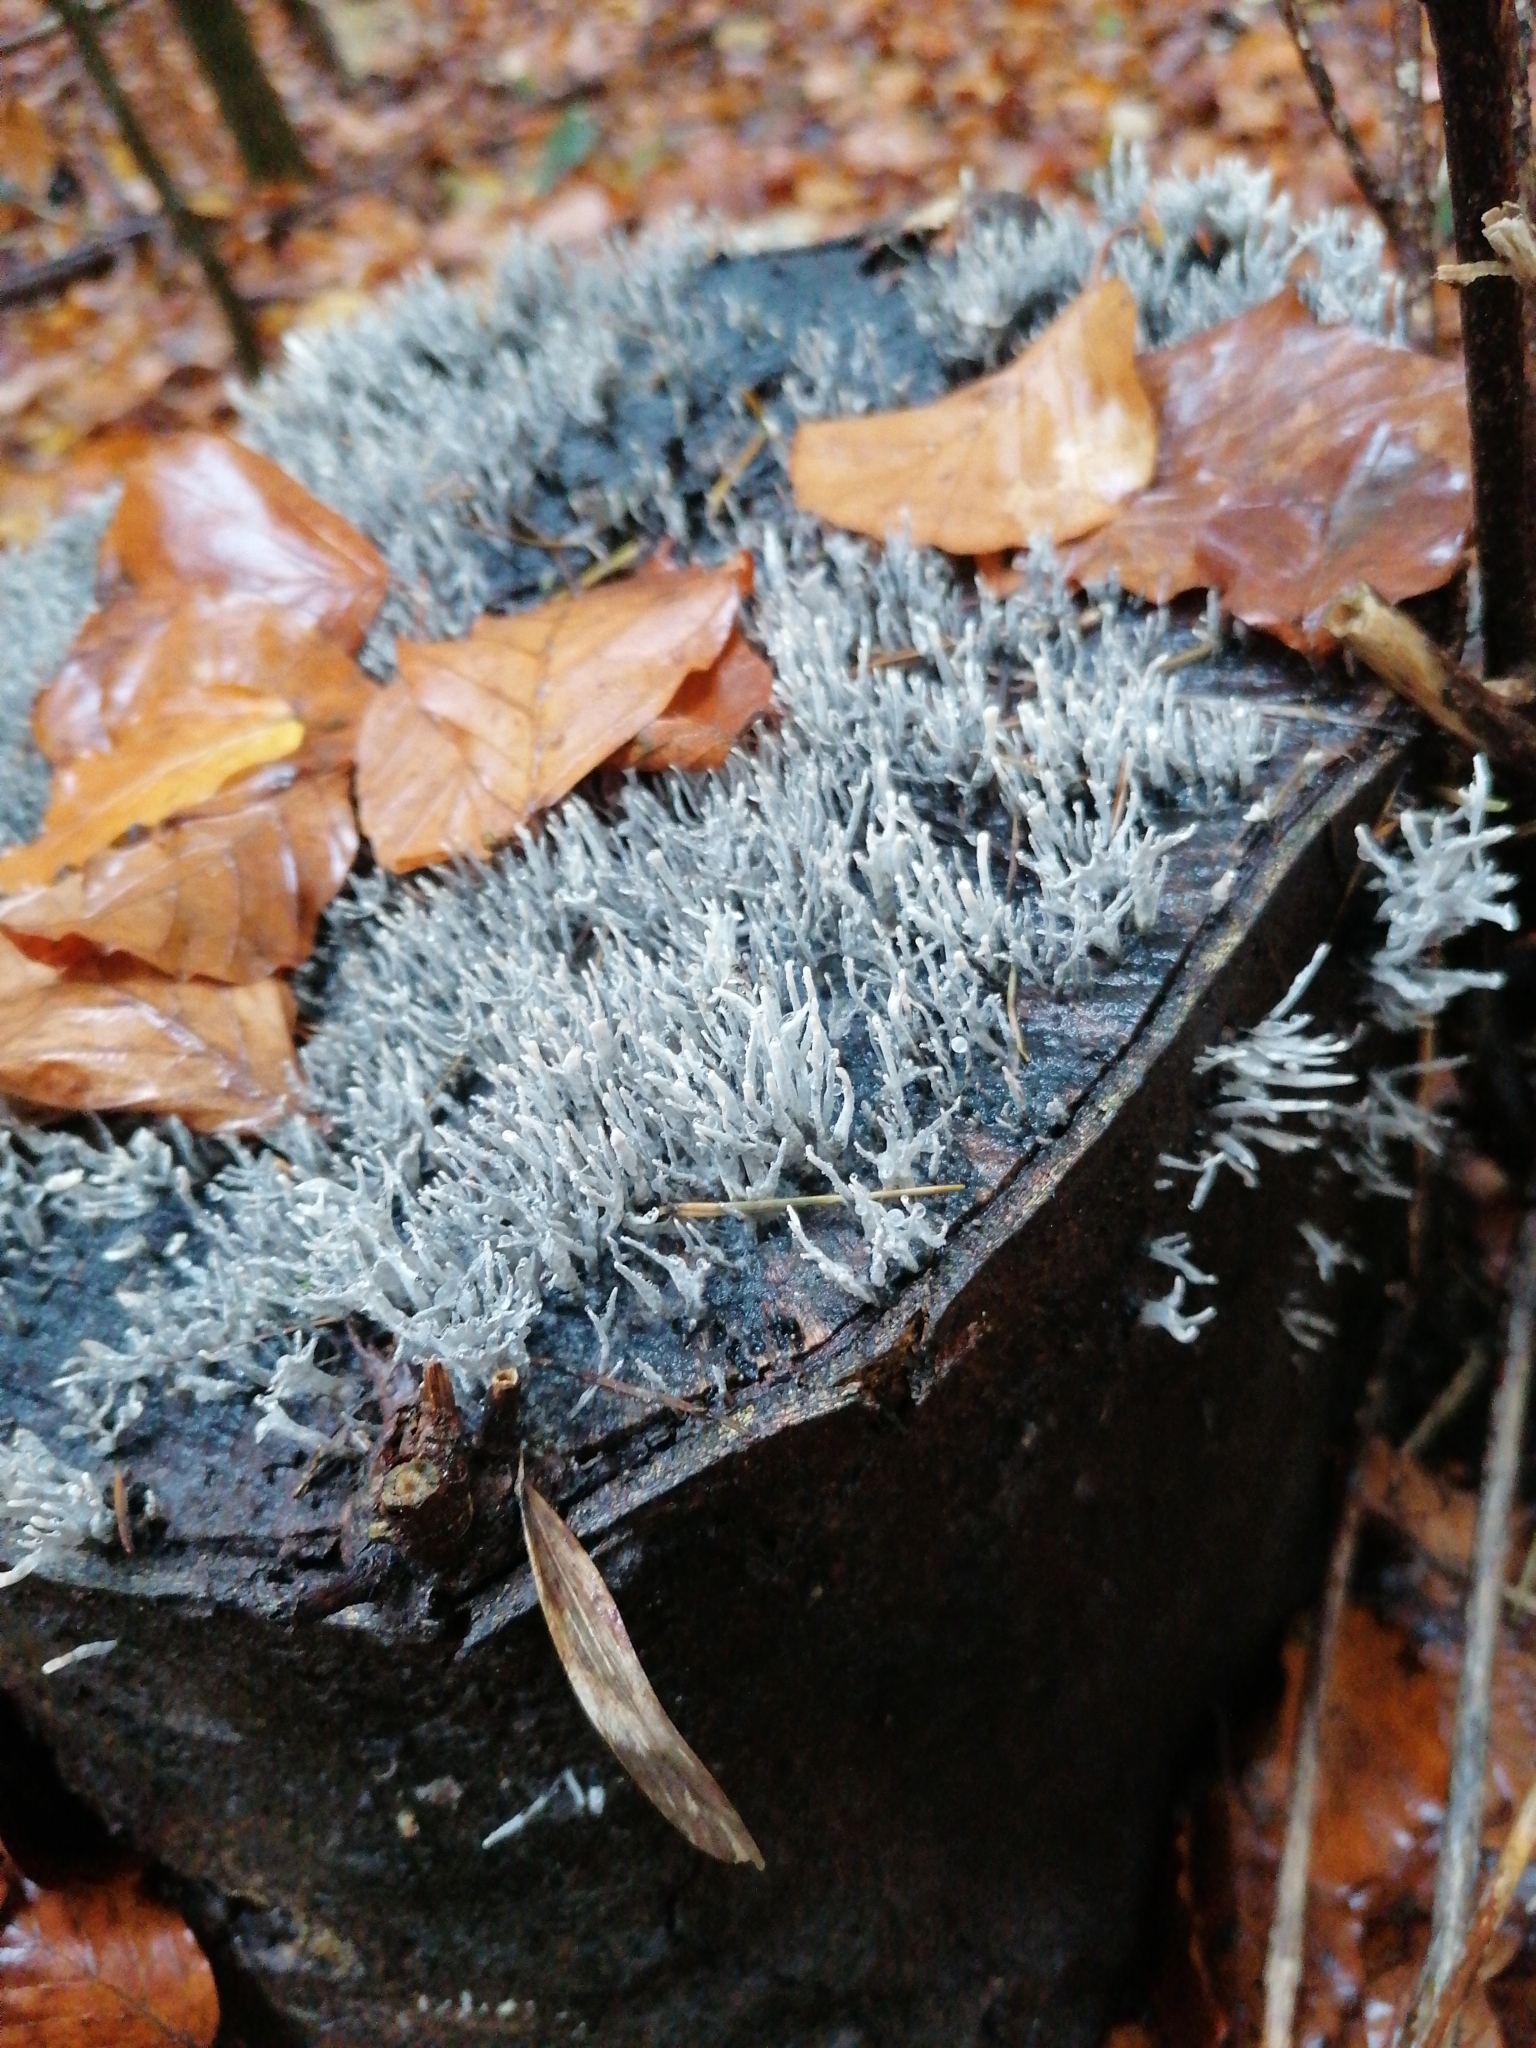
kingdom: Fungi
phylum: Ascomycota
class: Sordariomycetes
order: Xylariales
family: Xylariaceae
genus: Xylaria
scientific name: Xylaria hypoxylon
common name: Candle-snuff fungus
